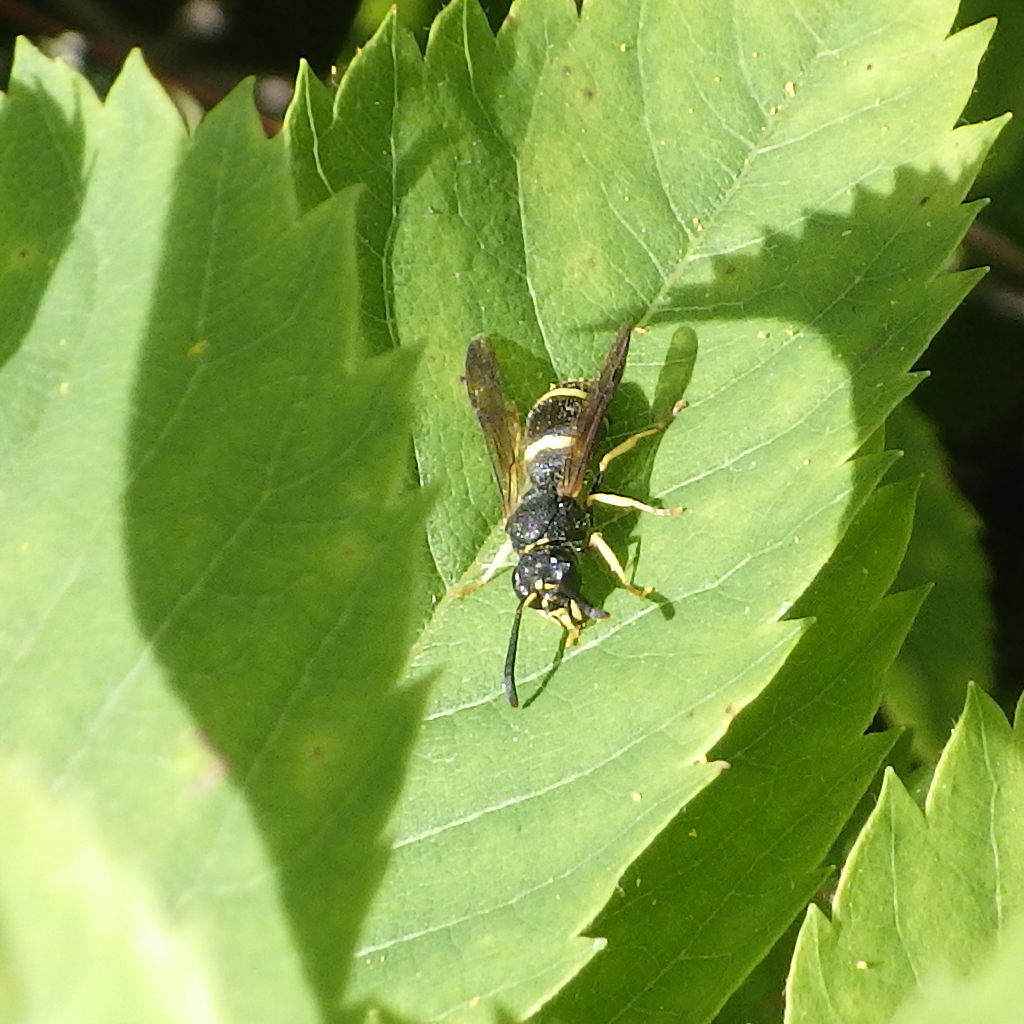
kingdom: Animalia
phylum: Arthropoda
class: Insecta
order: Hymenoptera
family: Vespidae
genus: Ancistrocerus
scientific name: Ancistrocerus
